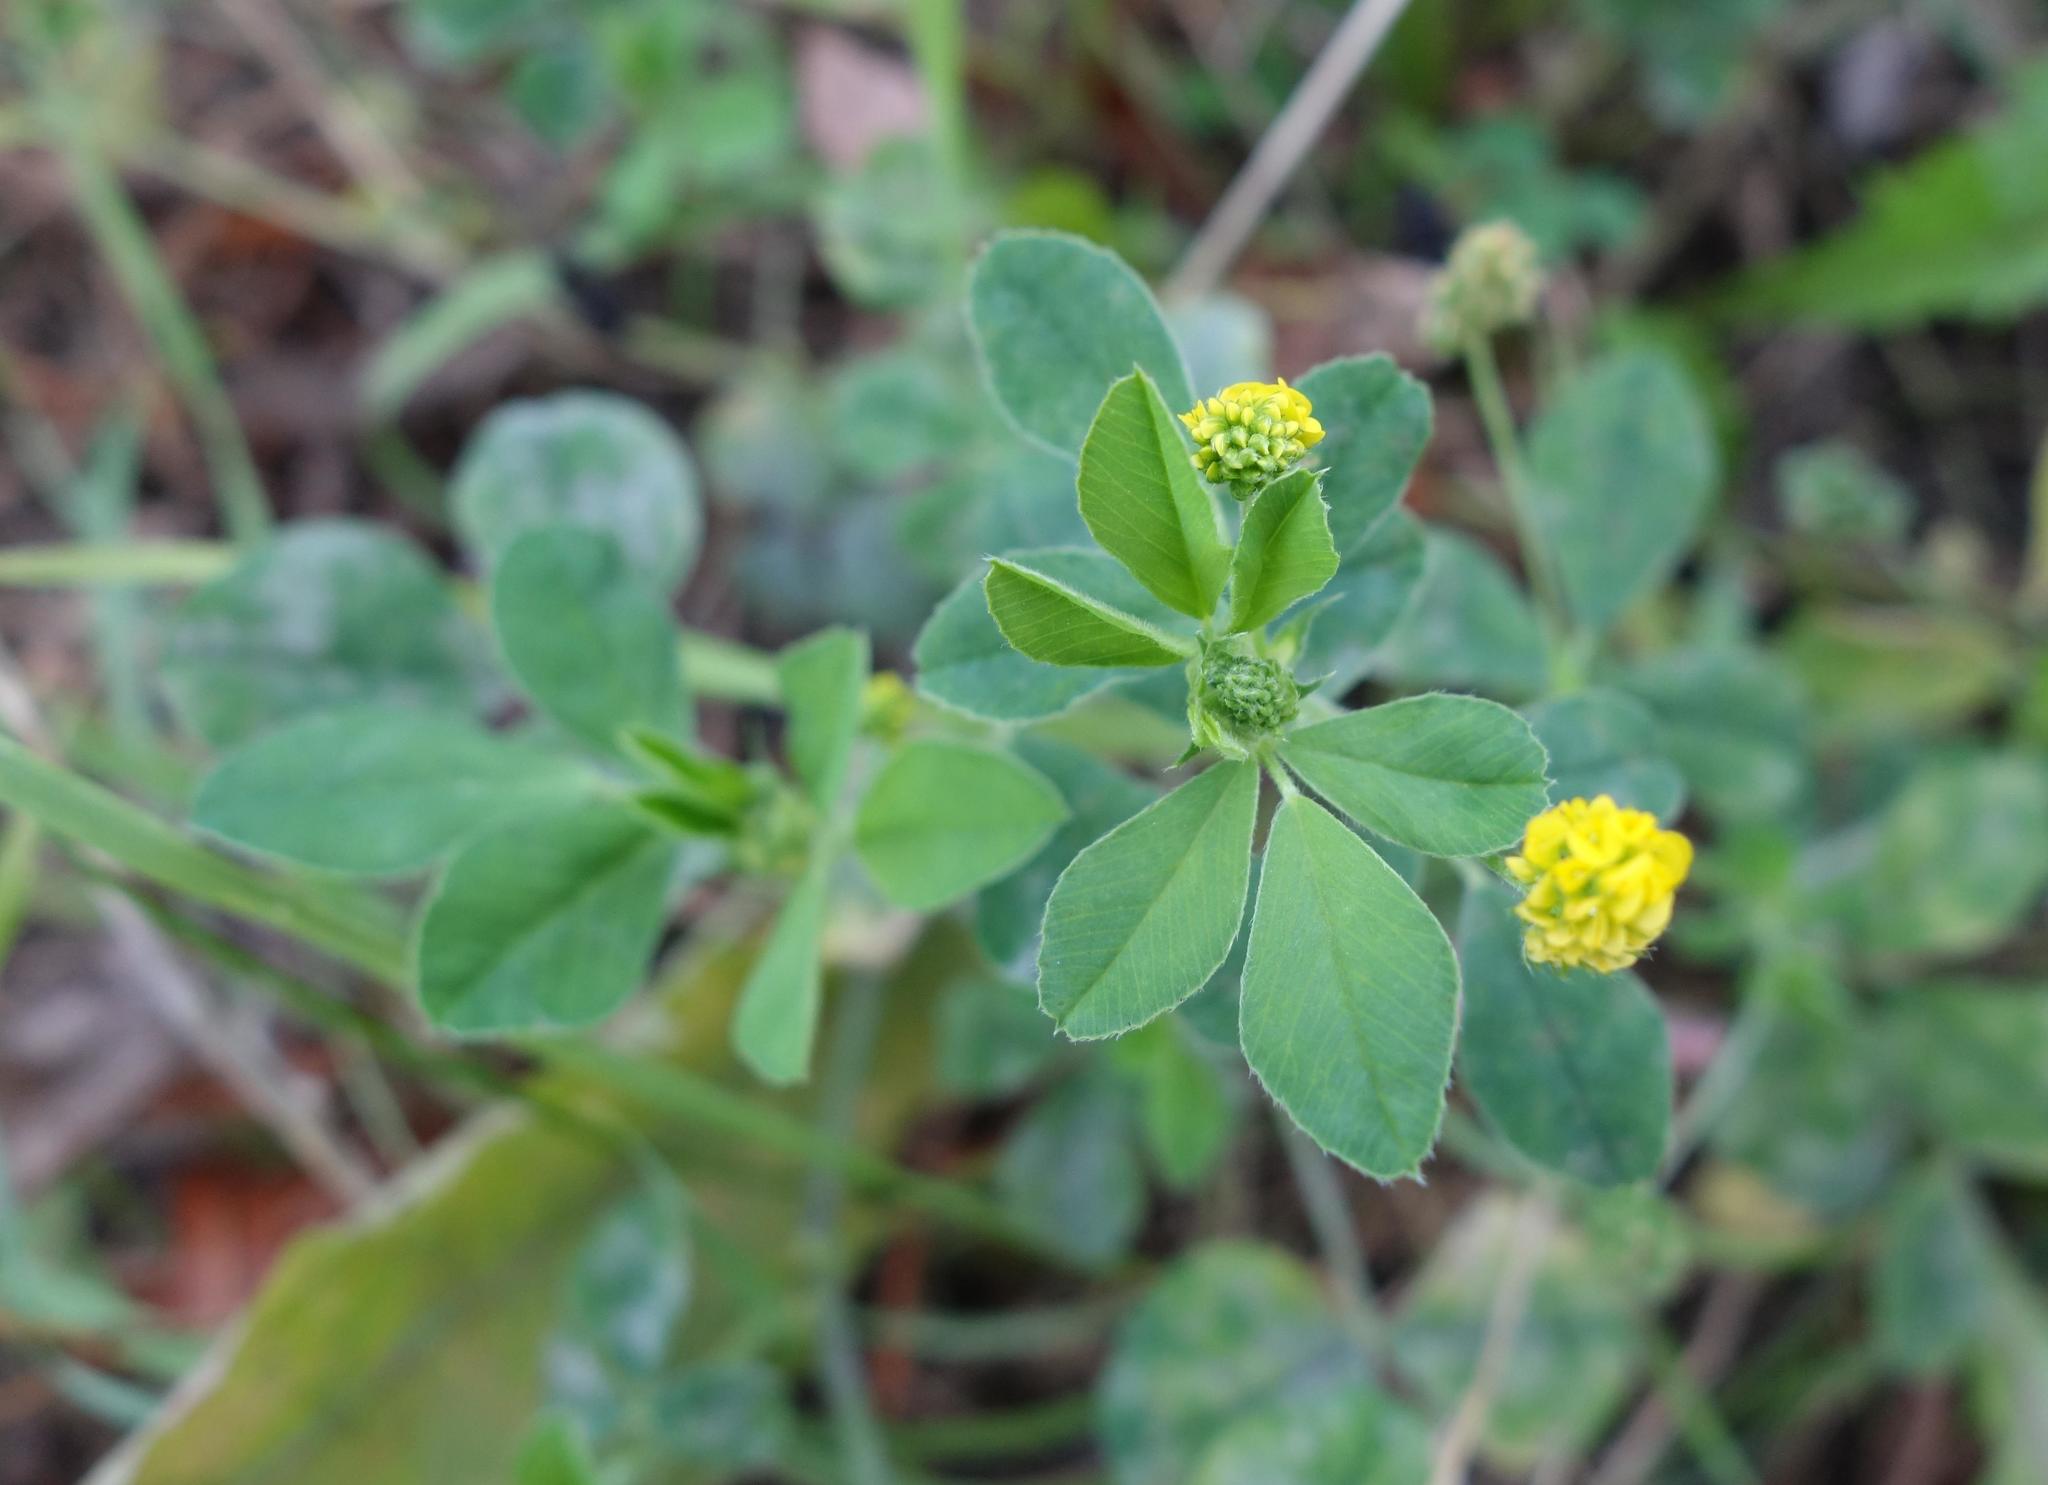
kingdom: Plantae
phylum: Tracheophyta
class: Magnoliopsida
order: Fabales
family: Fabaceae
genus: Medicago
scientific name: Medicago lupulina
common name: Black medick
